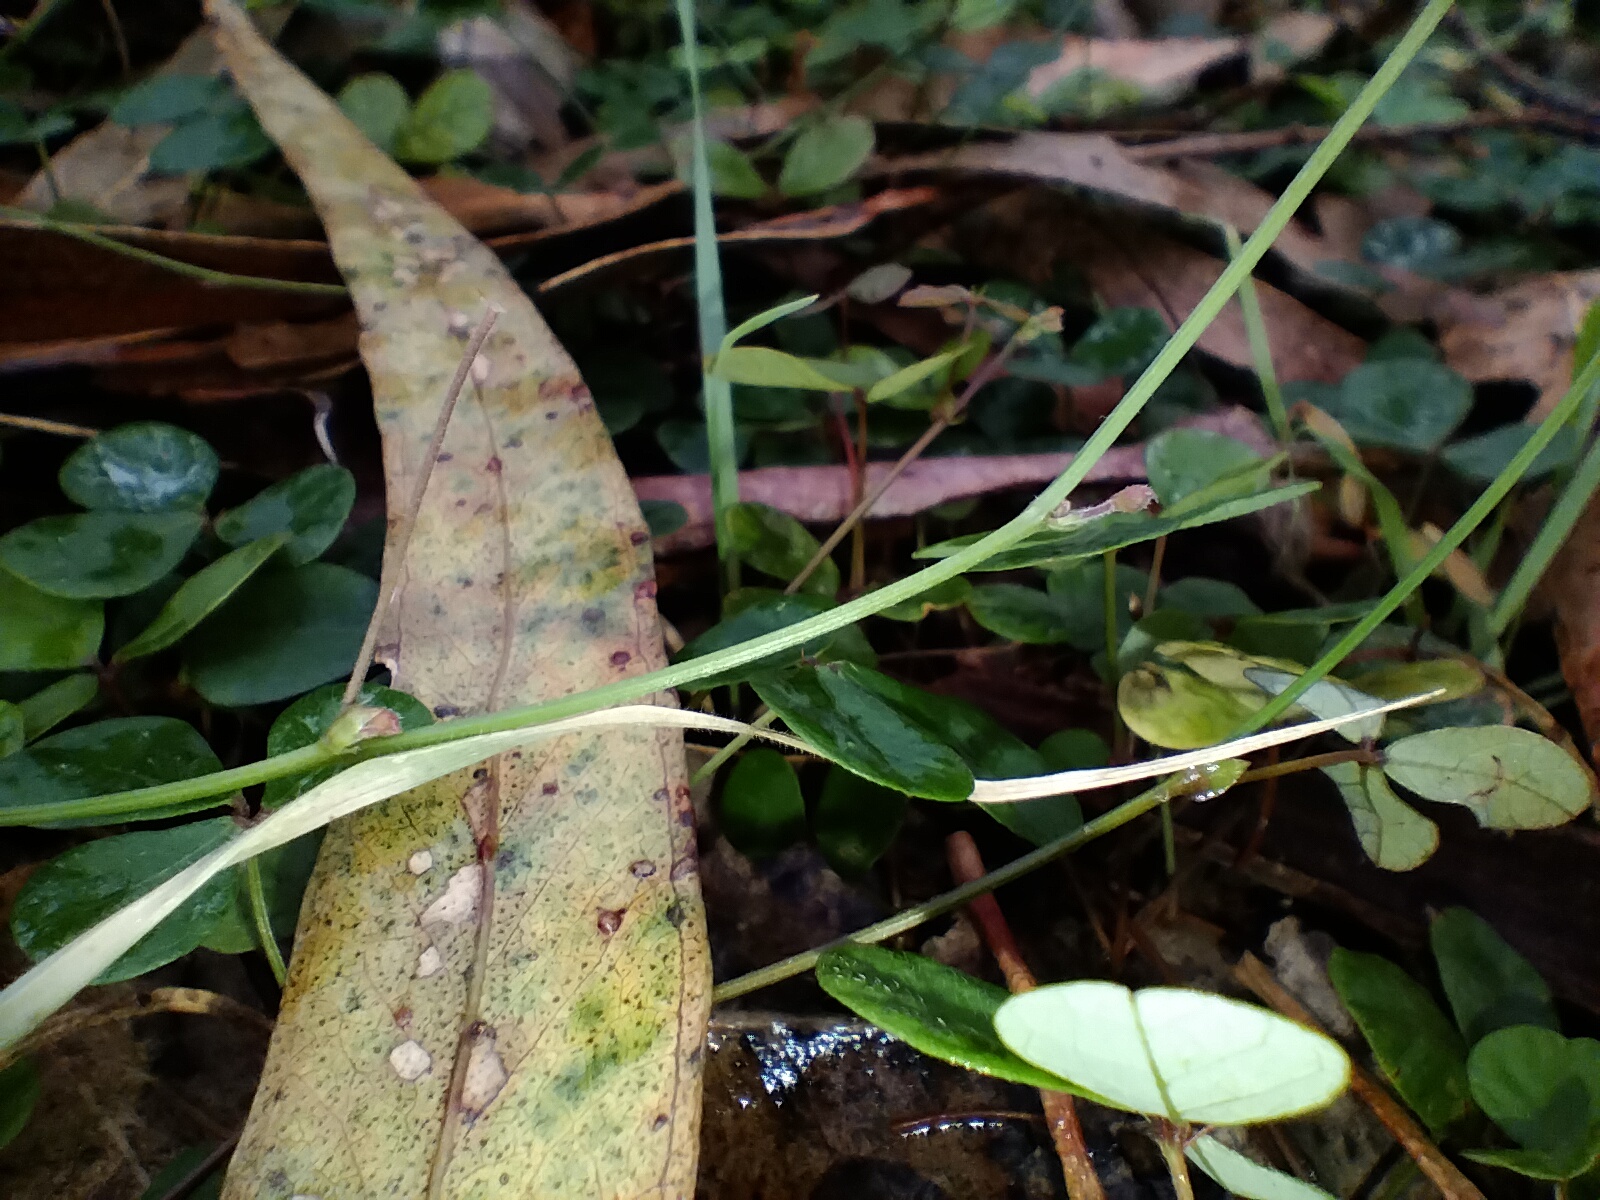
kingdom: Plantae
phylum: Tracheophyta
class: Magnoliopsida
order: Fabales
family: Fabaceae
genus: Pullenia
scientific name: Pullenia gunnii
